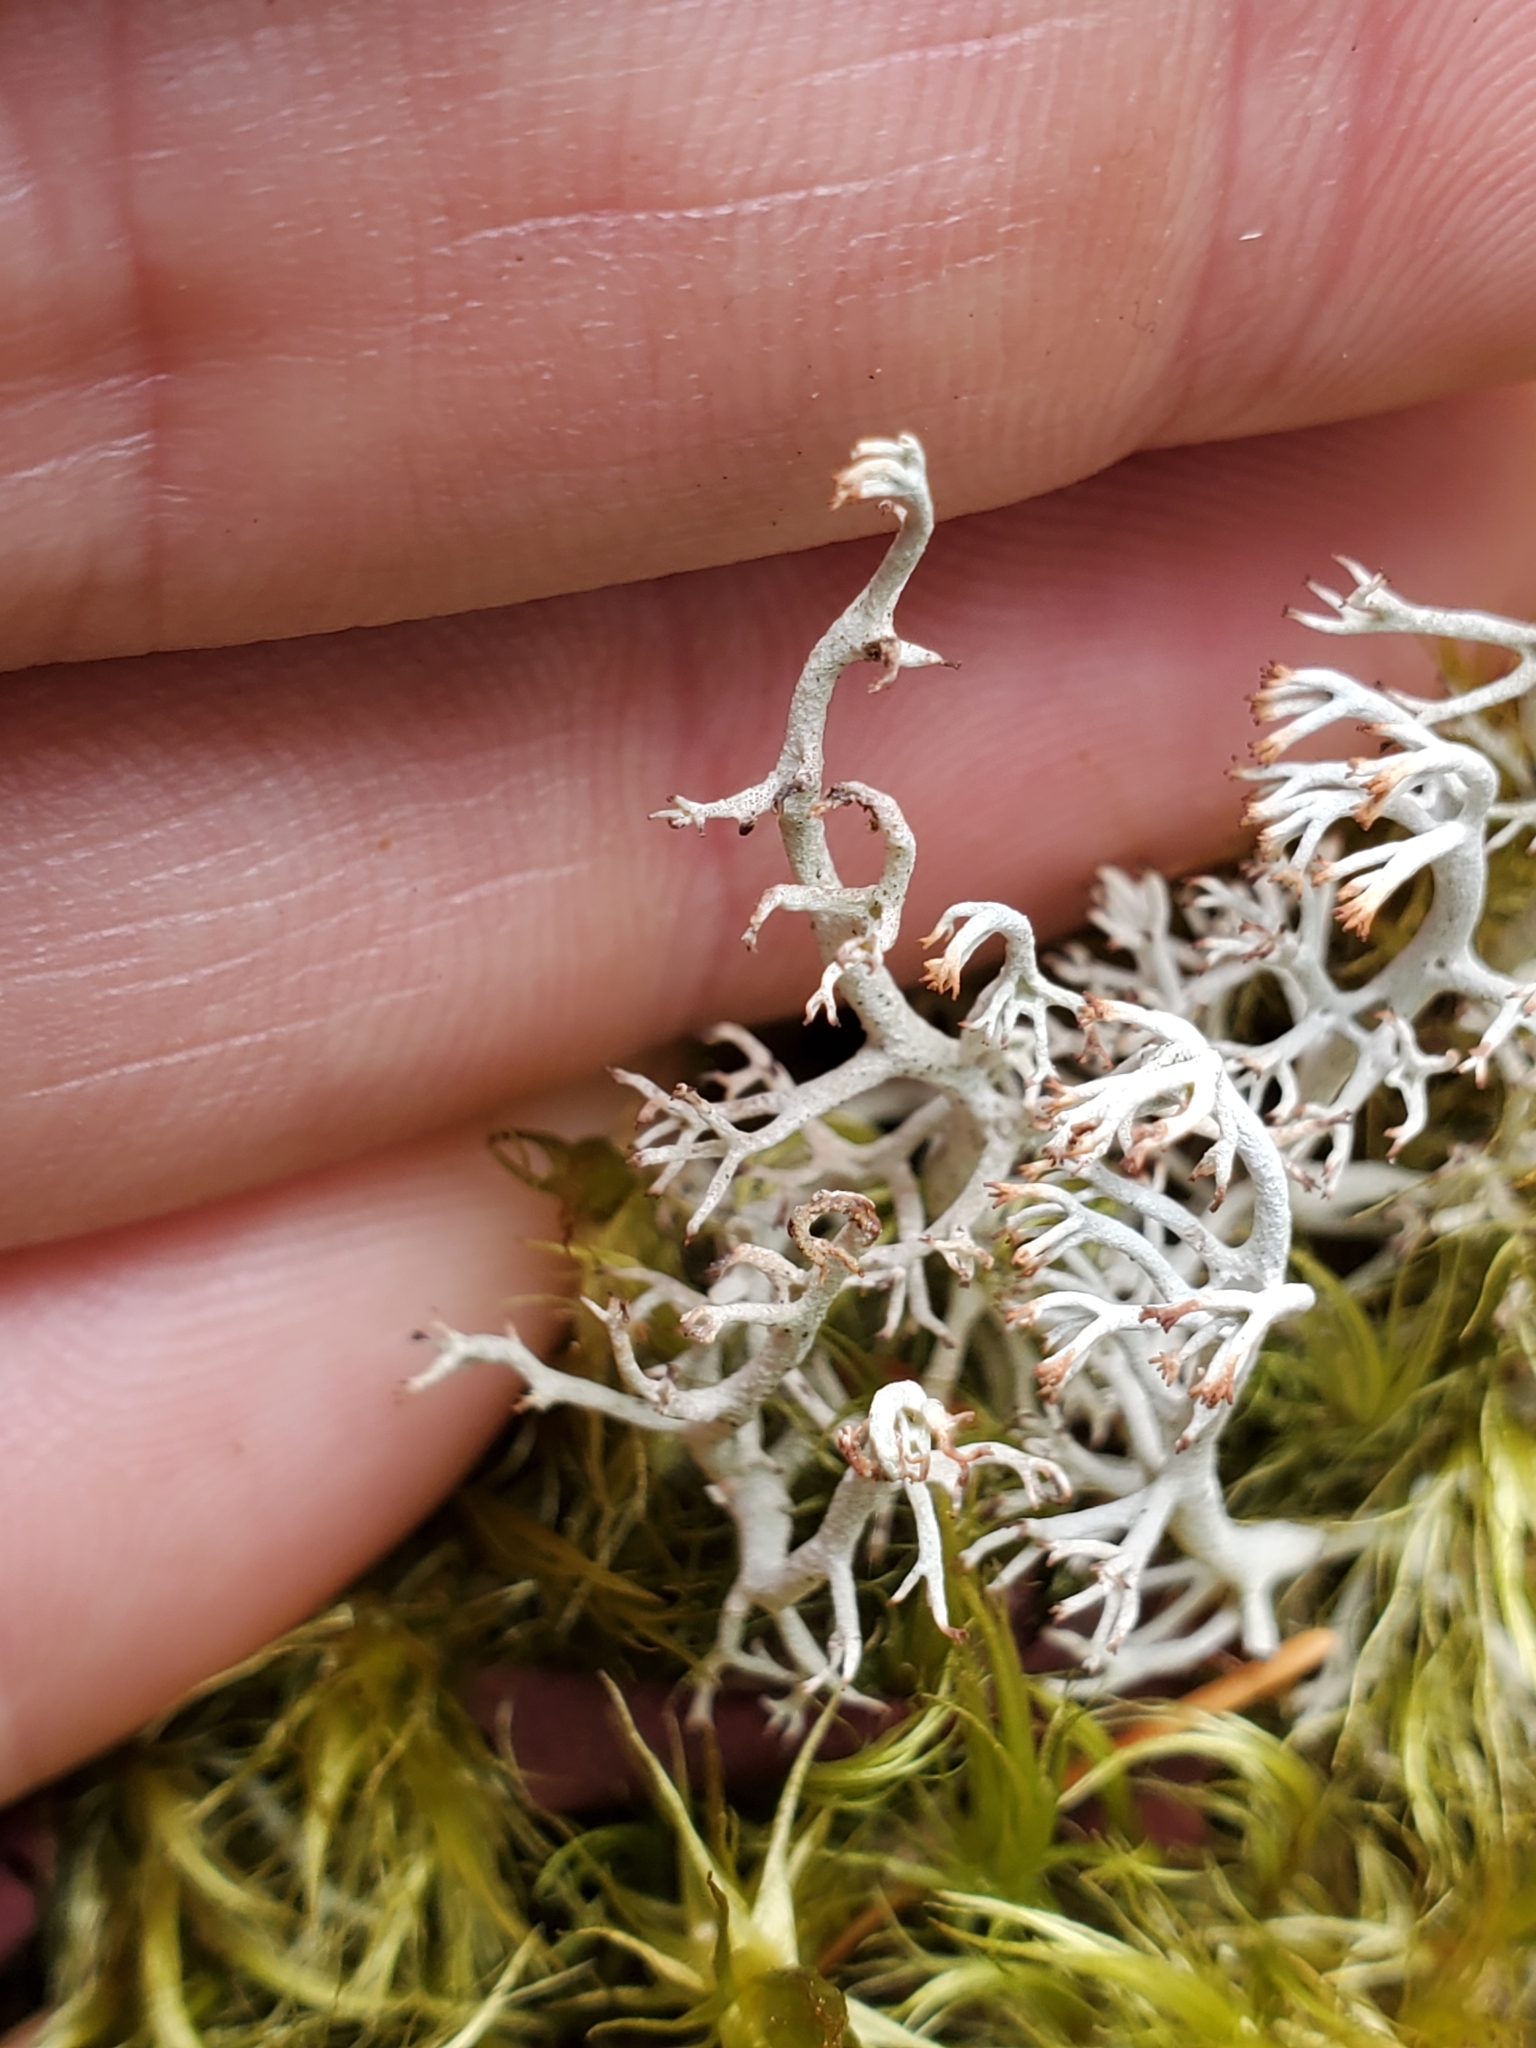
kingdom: Fungi
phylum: Ascomycota
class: Lecanoromycetes
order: Lecanorales
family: Cladoniaceae
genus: Cladonia
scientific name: Cladonia rangiferina
